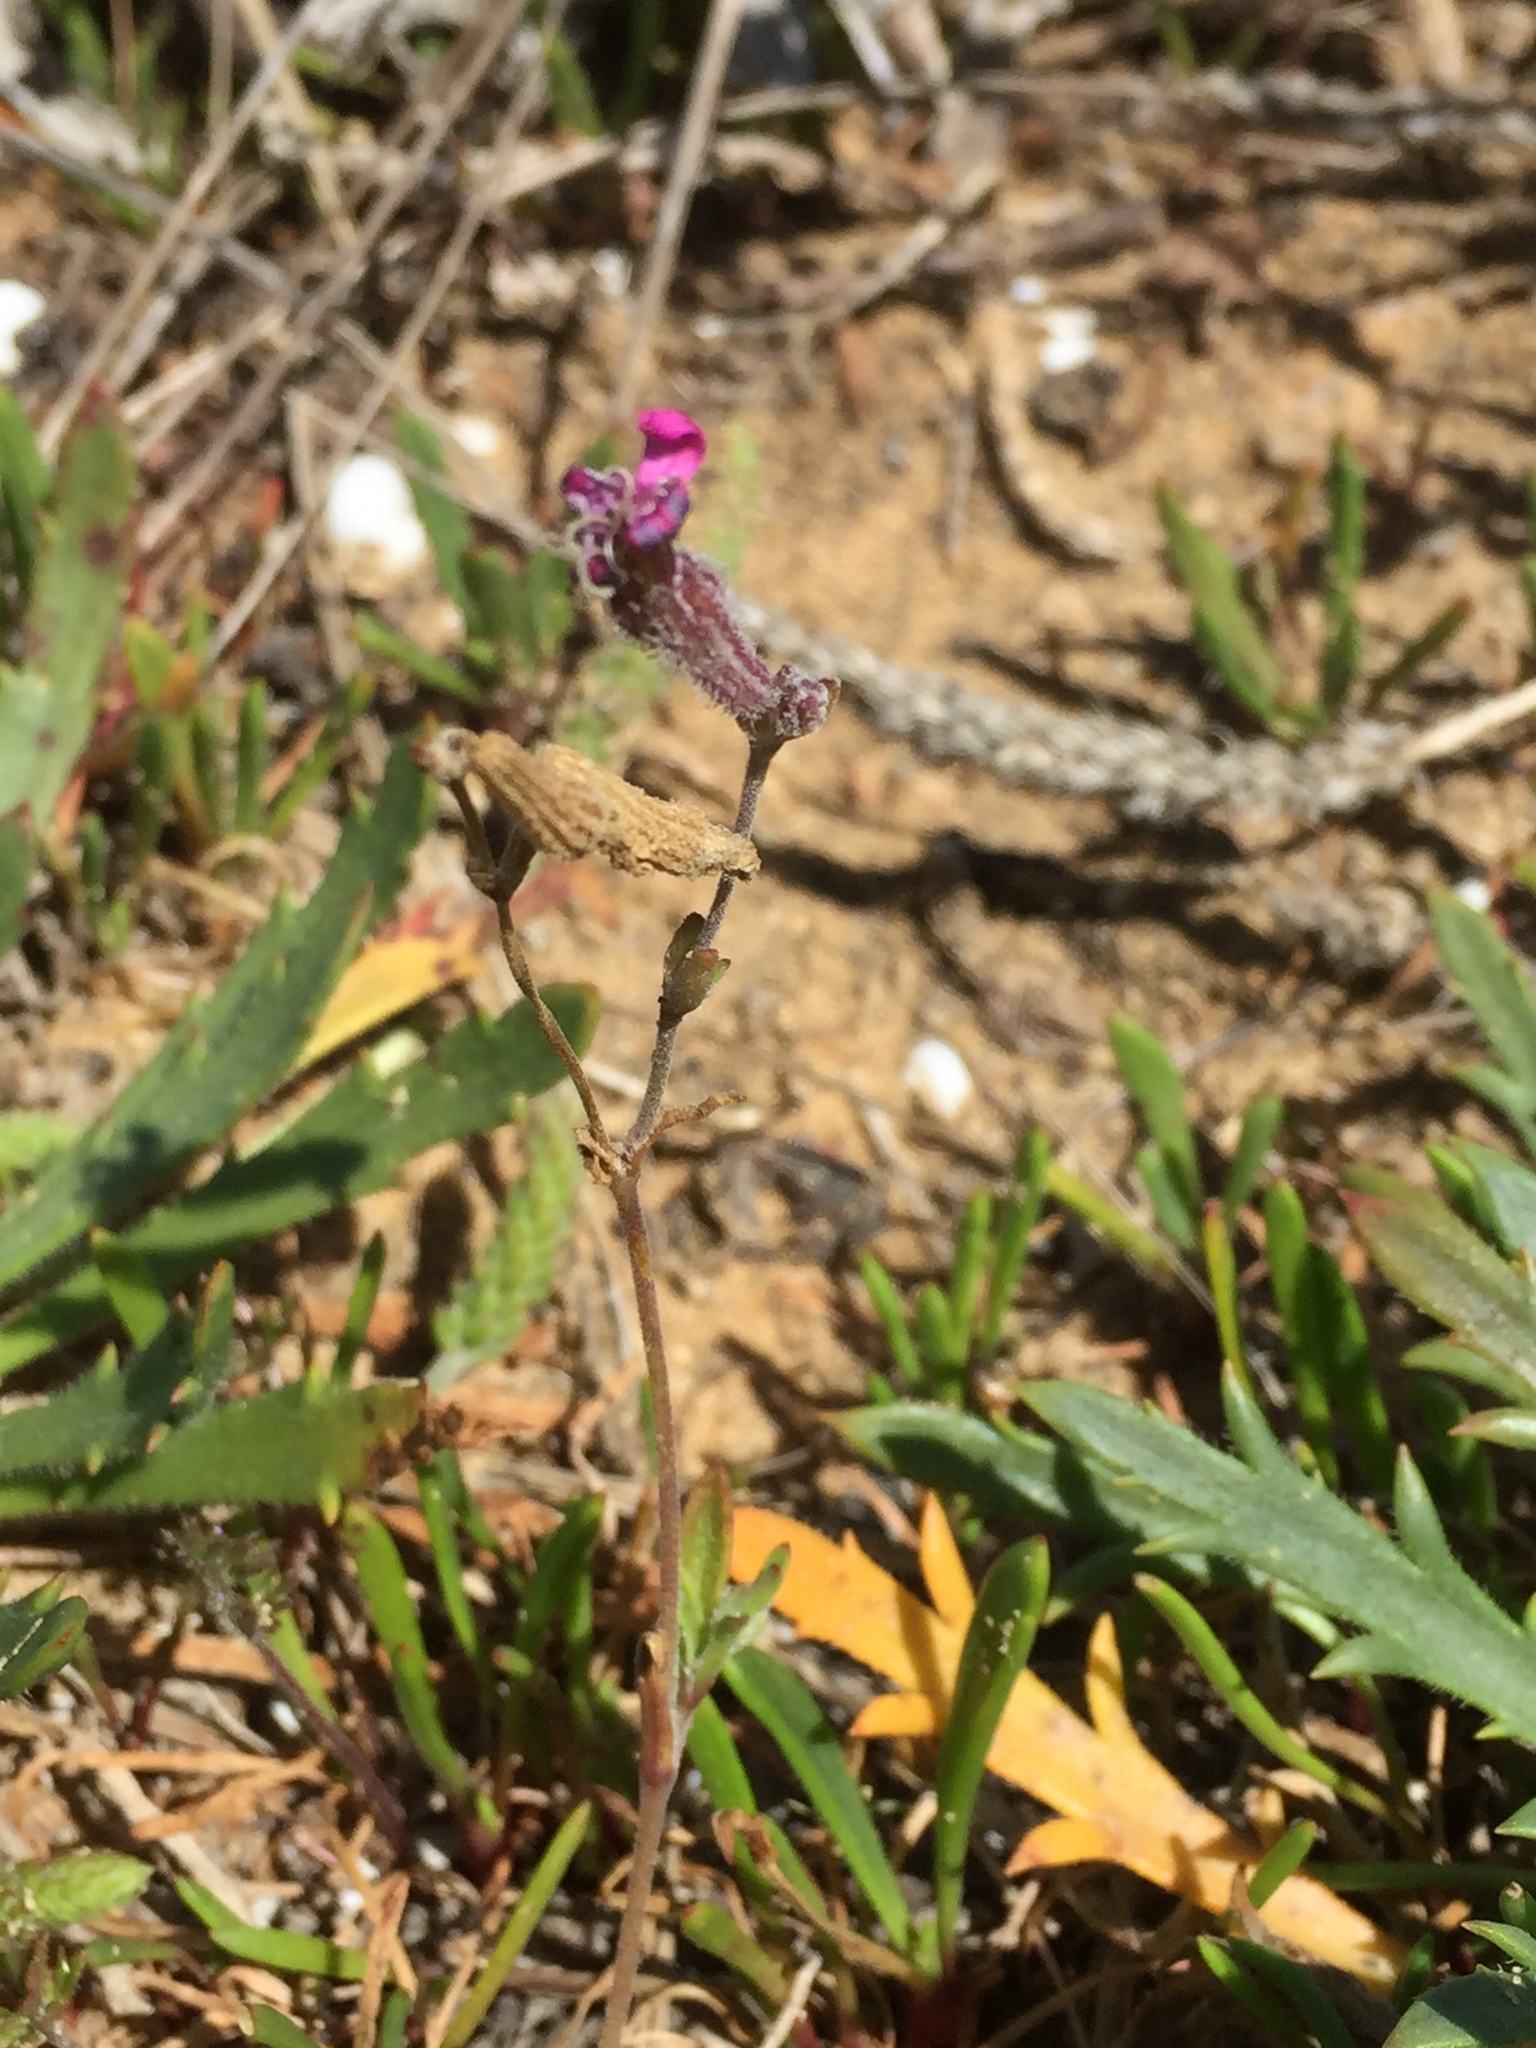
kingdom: Plantae
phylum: Tracheophyta
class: Magnoliopsida
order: Caryophyllales
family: Caryophyllaceae
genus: Silene
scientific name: Silene colorata
